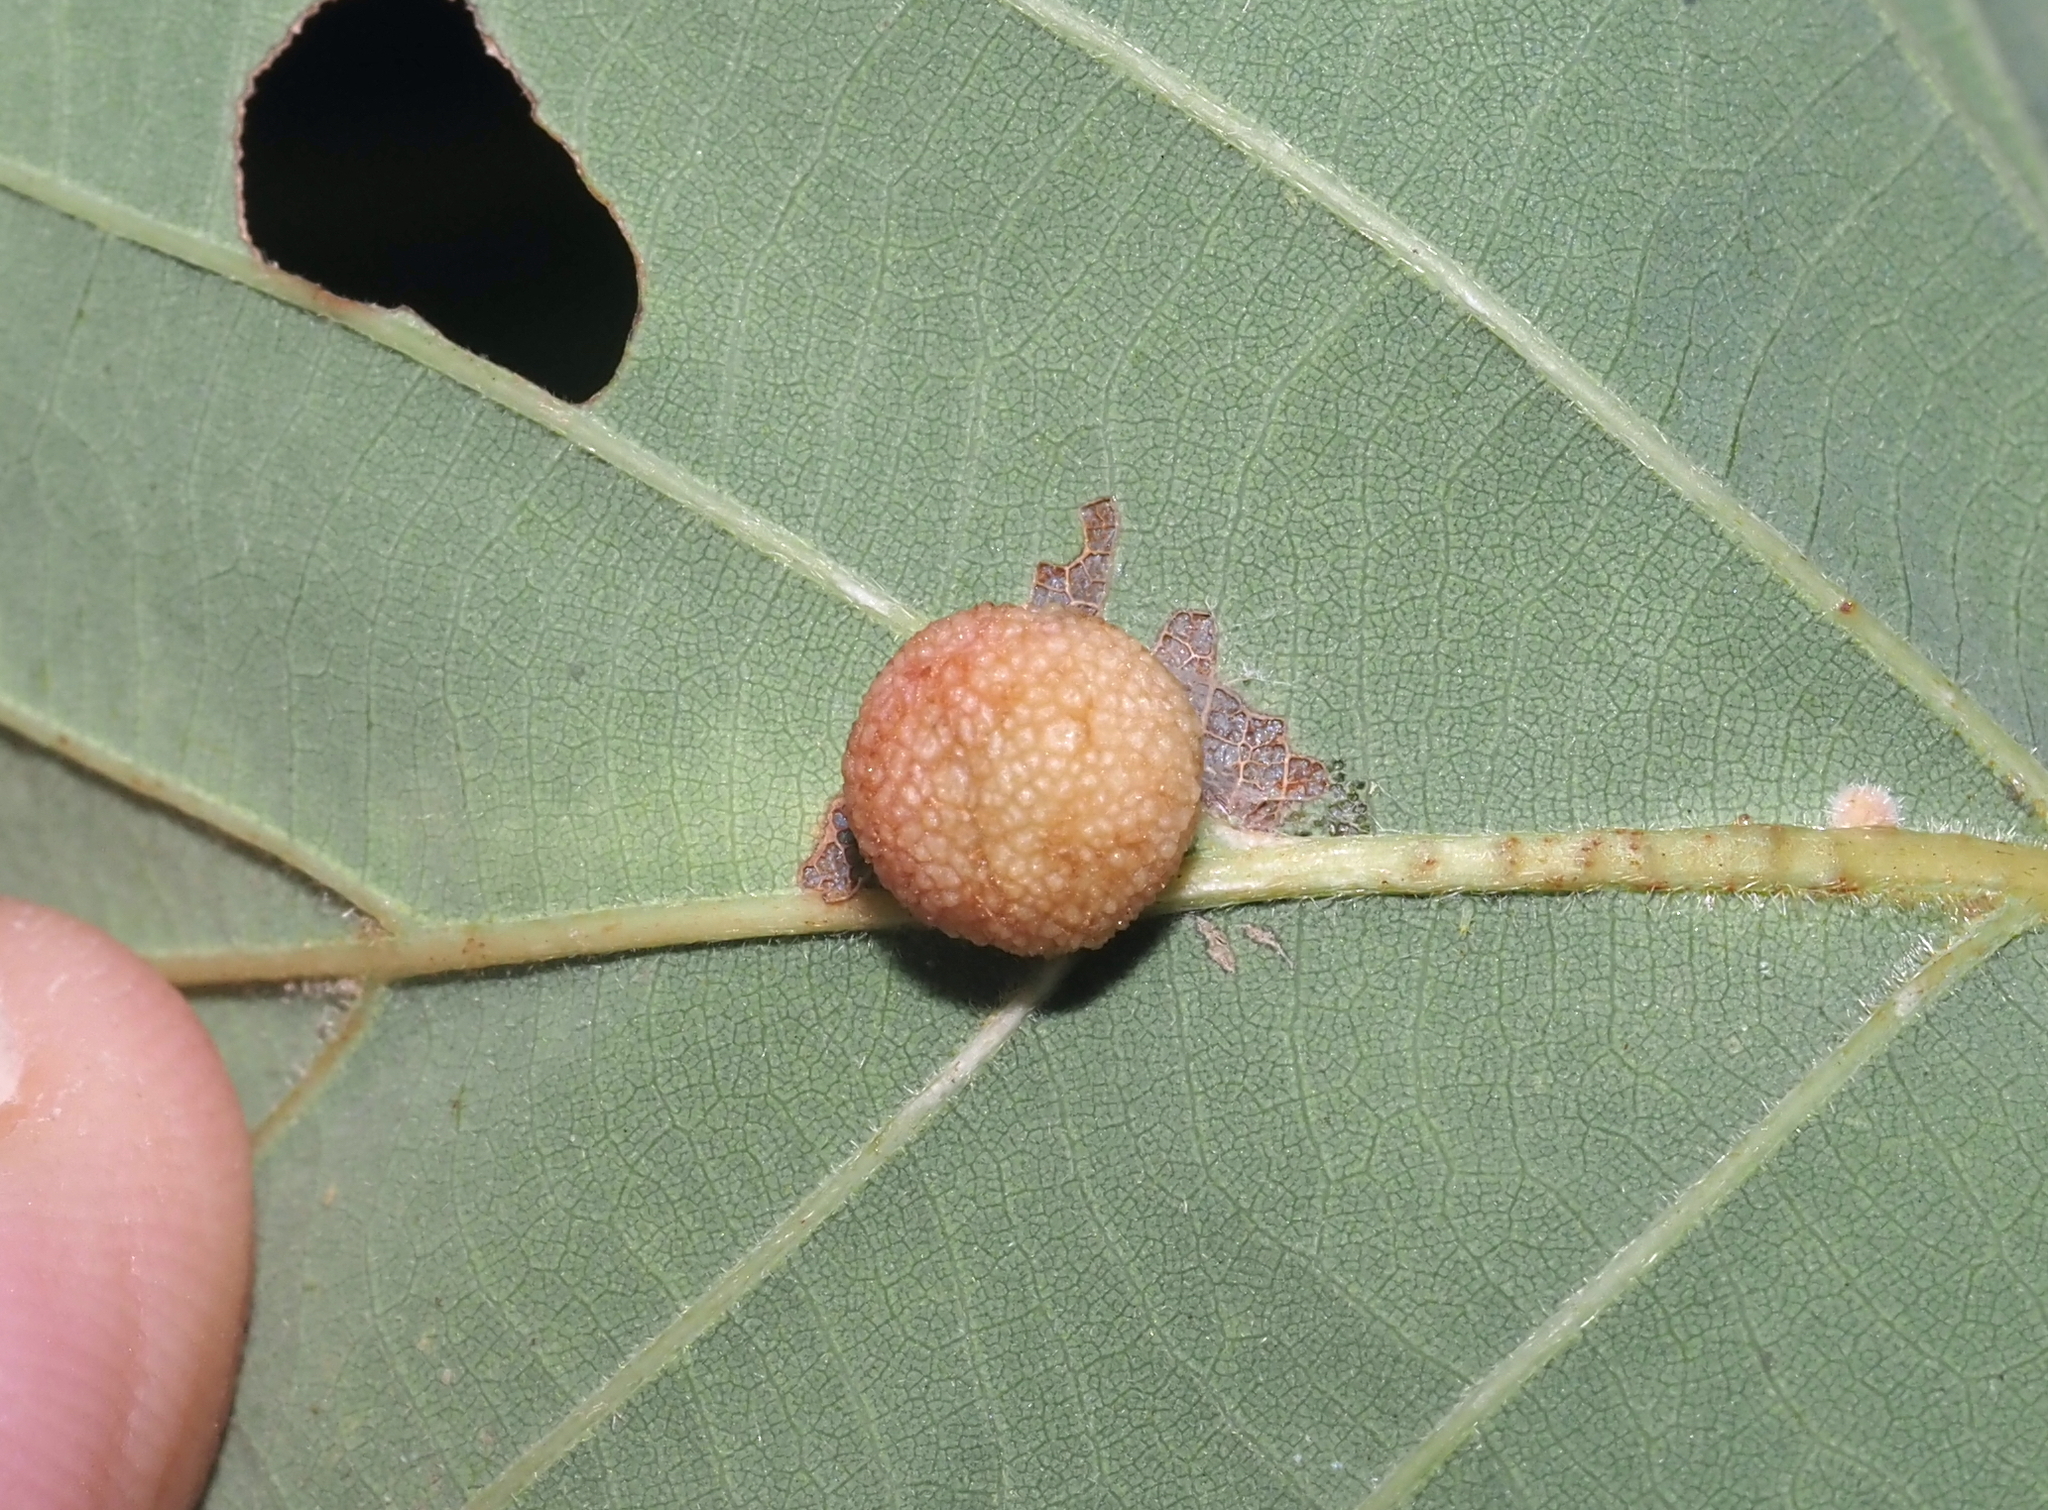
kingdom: Animalia
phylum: Arthropoda
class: Insecta
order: Hymenoptera
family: Cynipidae
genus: Acraspis
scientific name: Acraspis quercushirta
